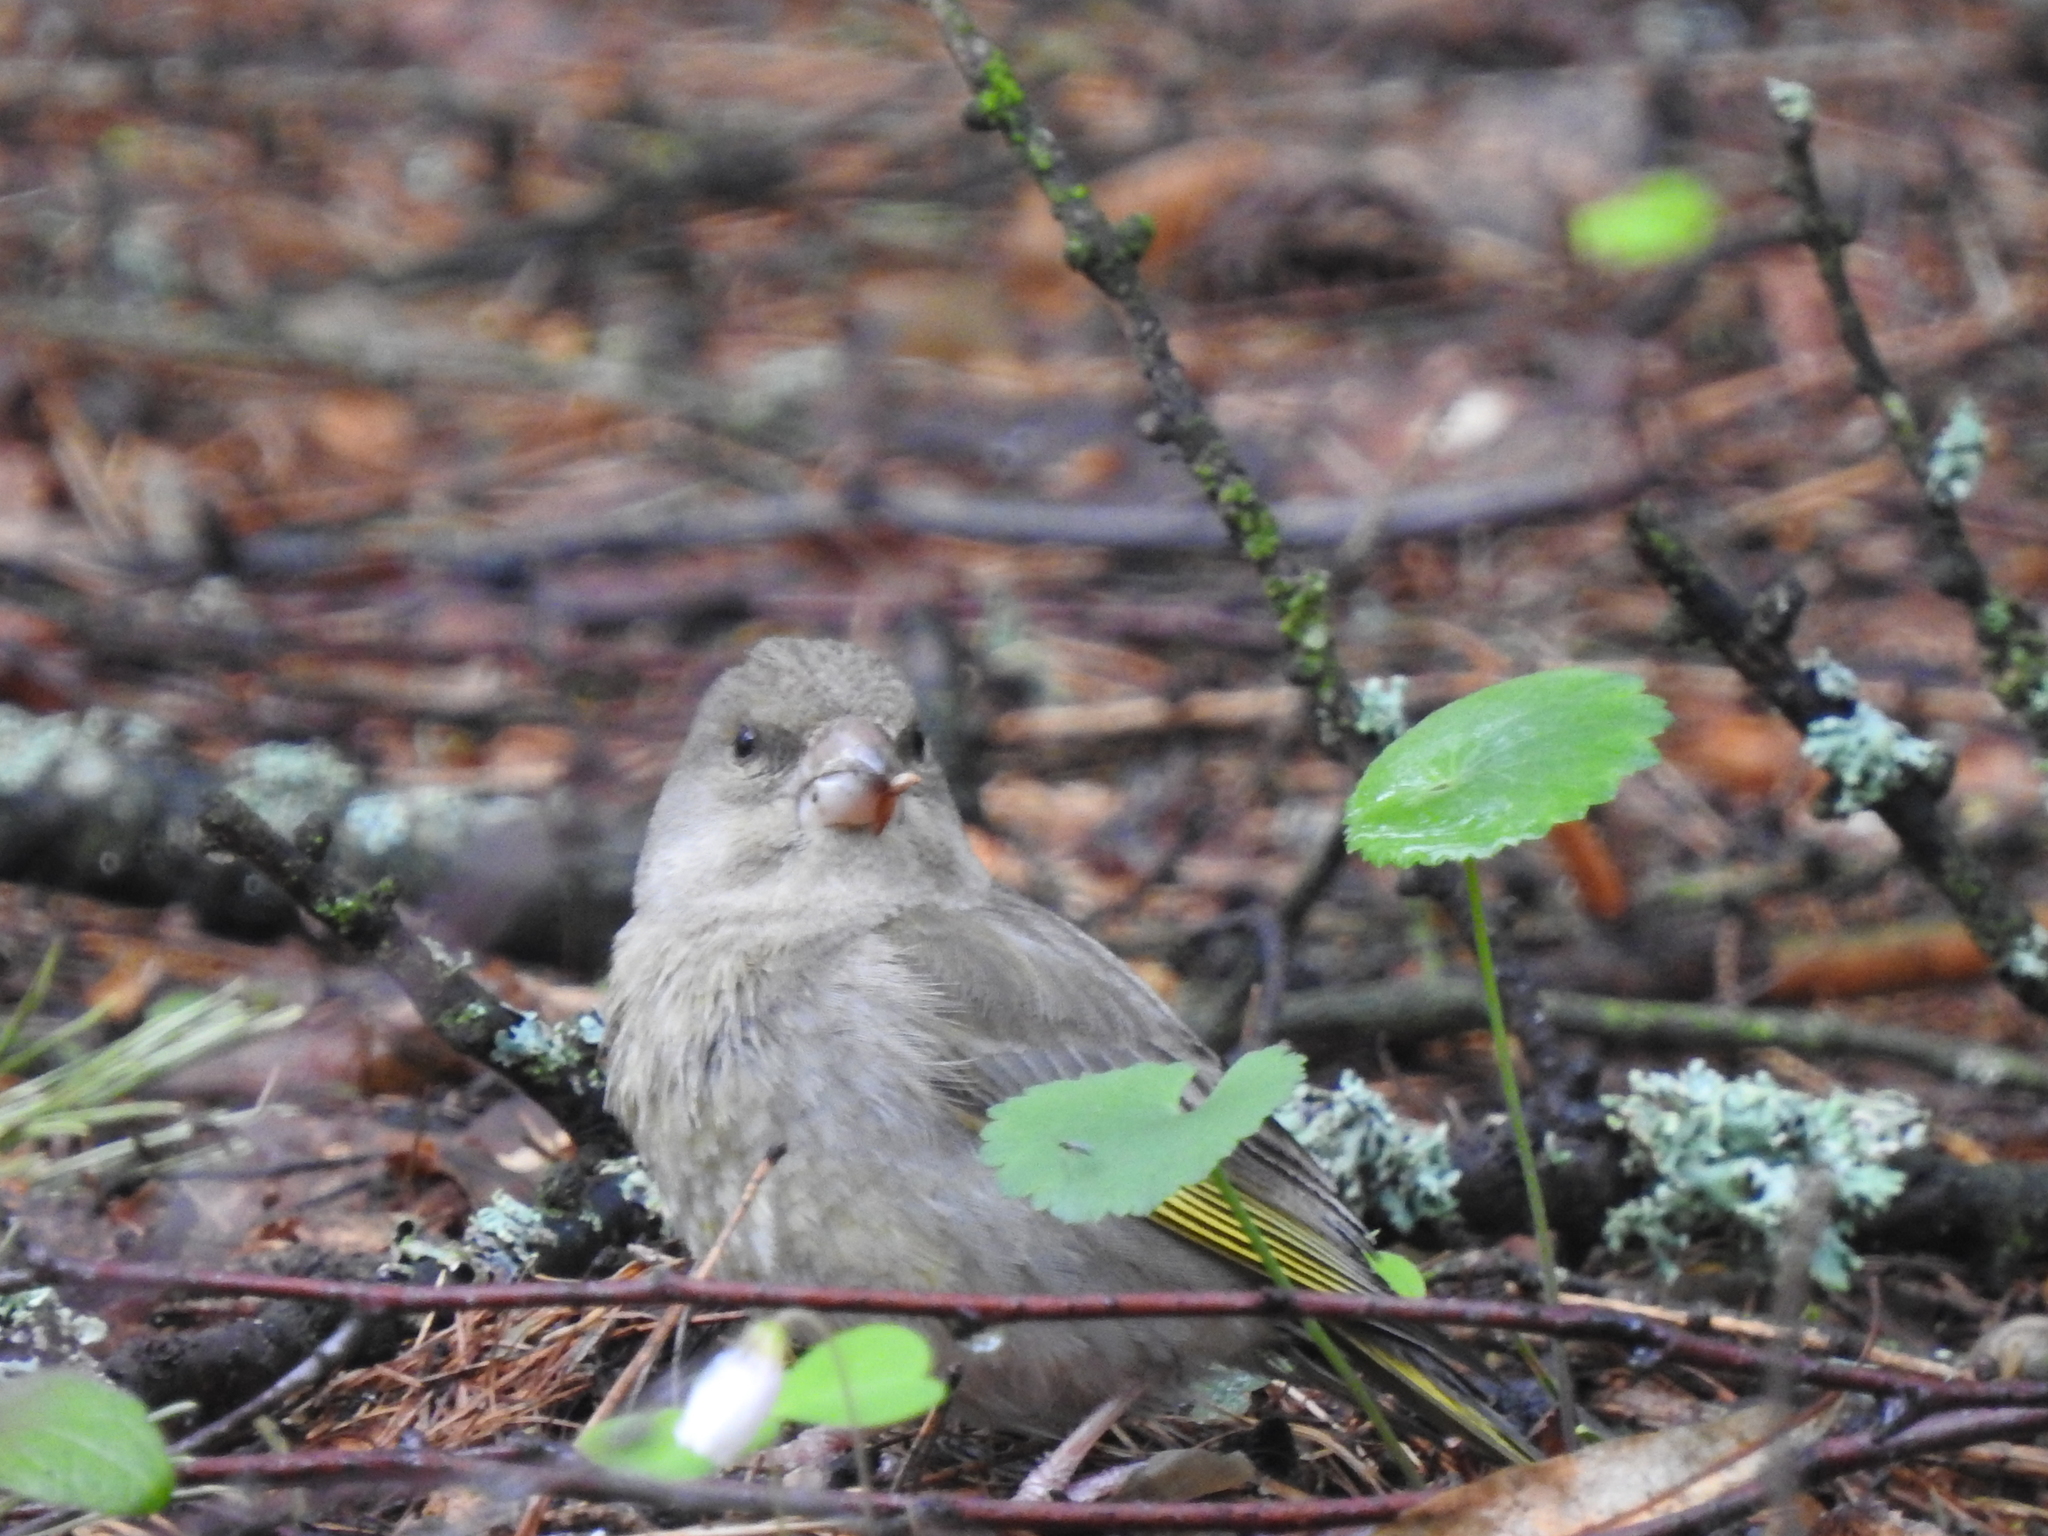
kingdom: Plantae
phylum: Tracheophyta
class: Liliopsida
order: Poales
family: Poaceae
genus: Chloris
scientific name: Chloris chloris
